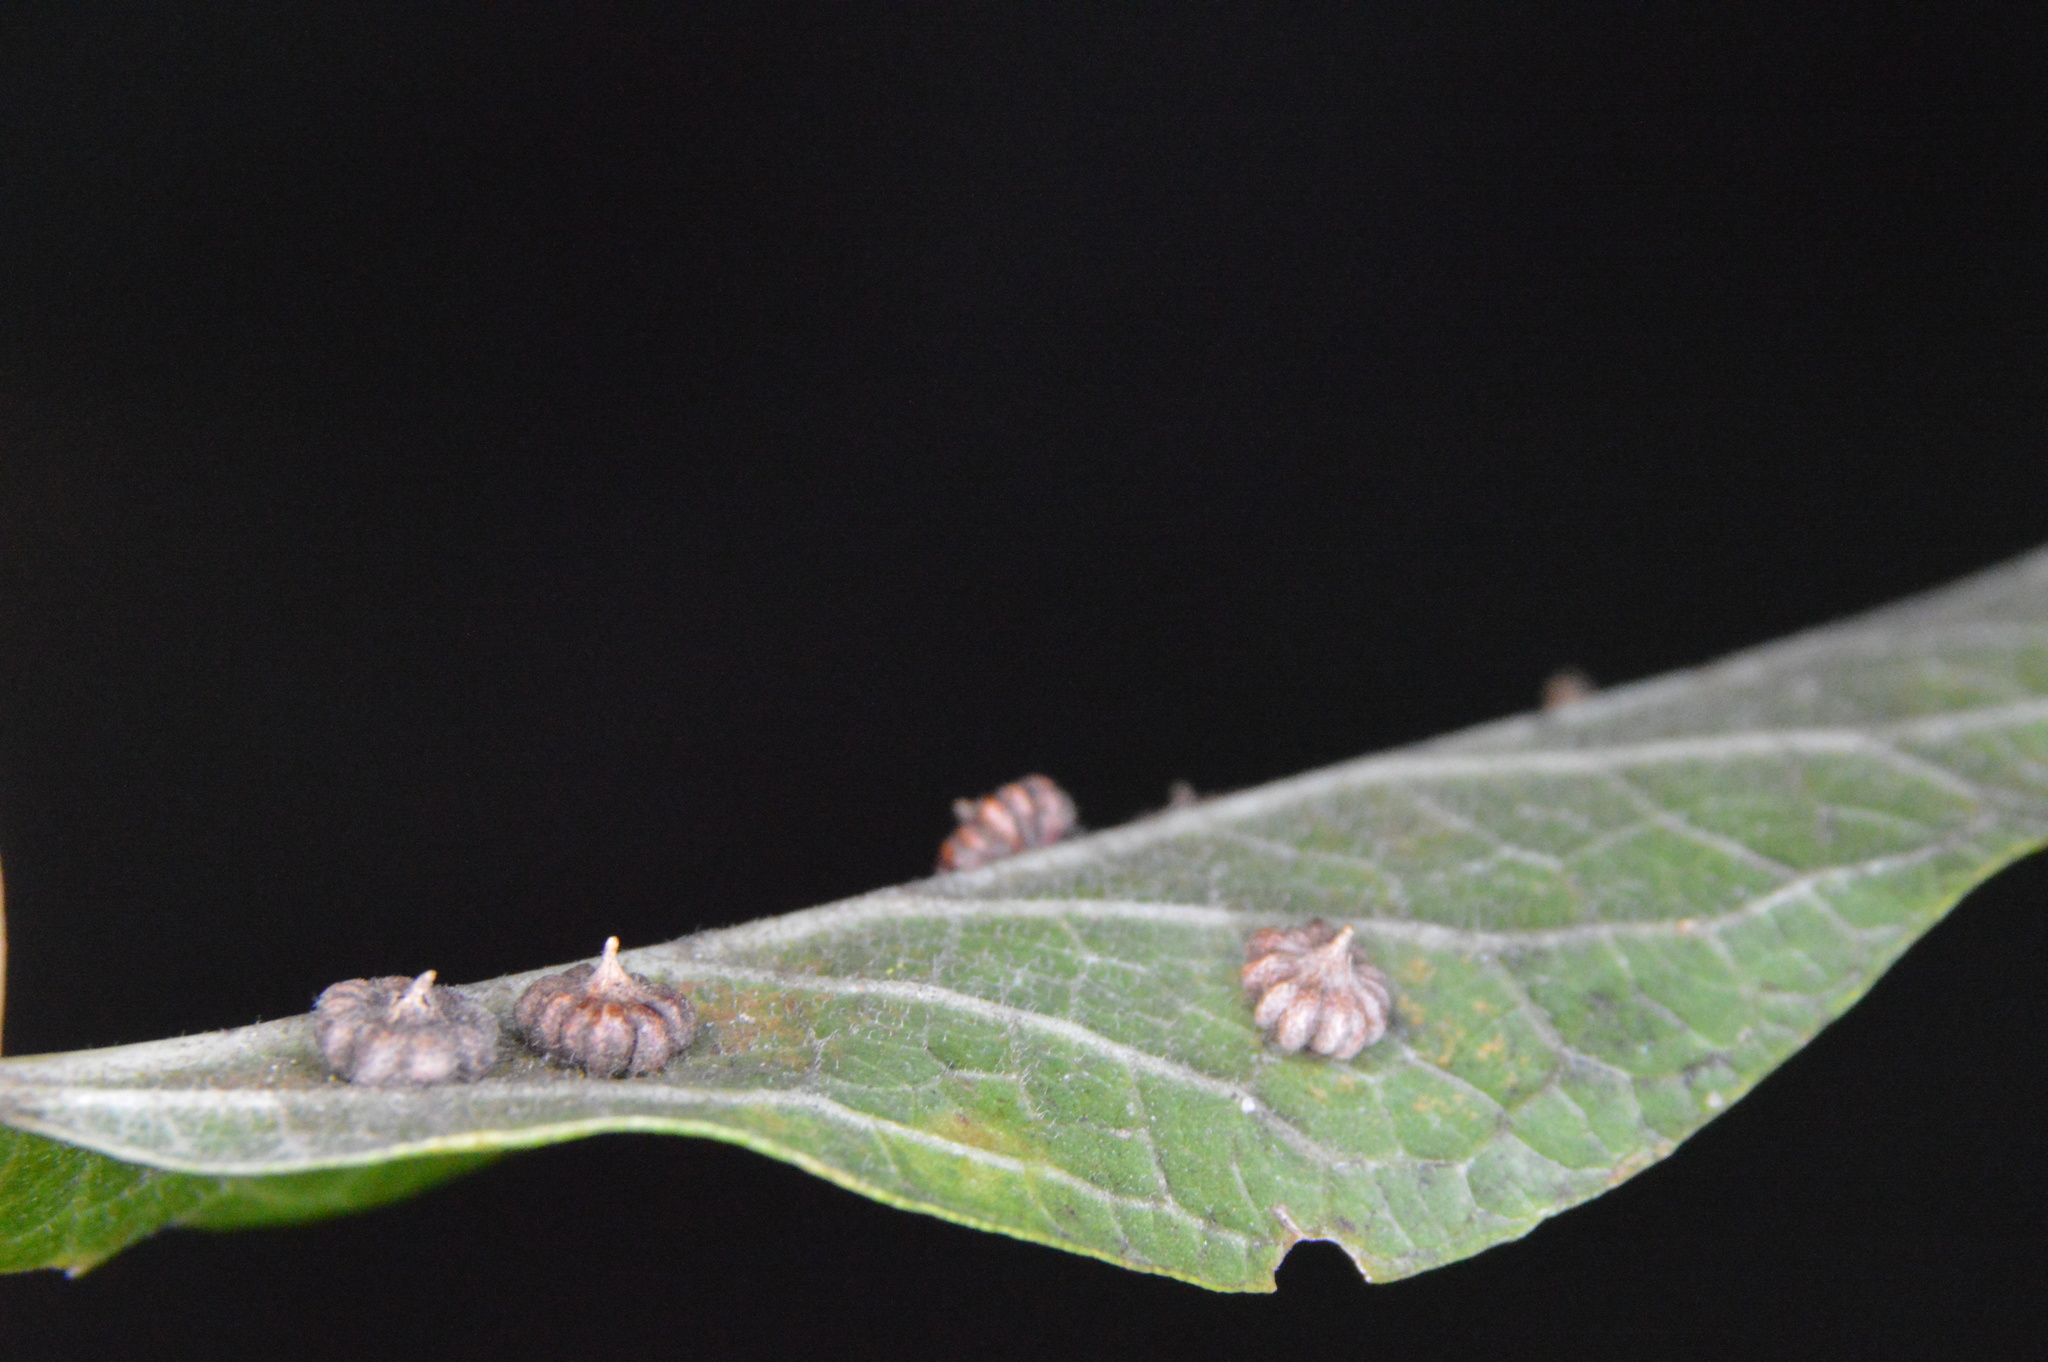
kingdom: Animalia
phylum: Arthropoda
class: Insecta
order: Diptera
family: Cecidomyiidae
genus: Celticecis
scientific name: Celticecis capsularis
